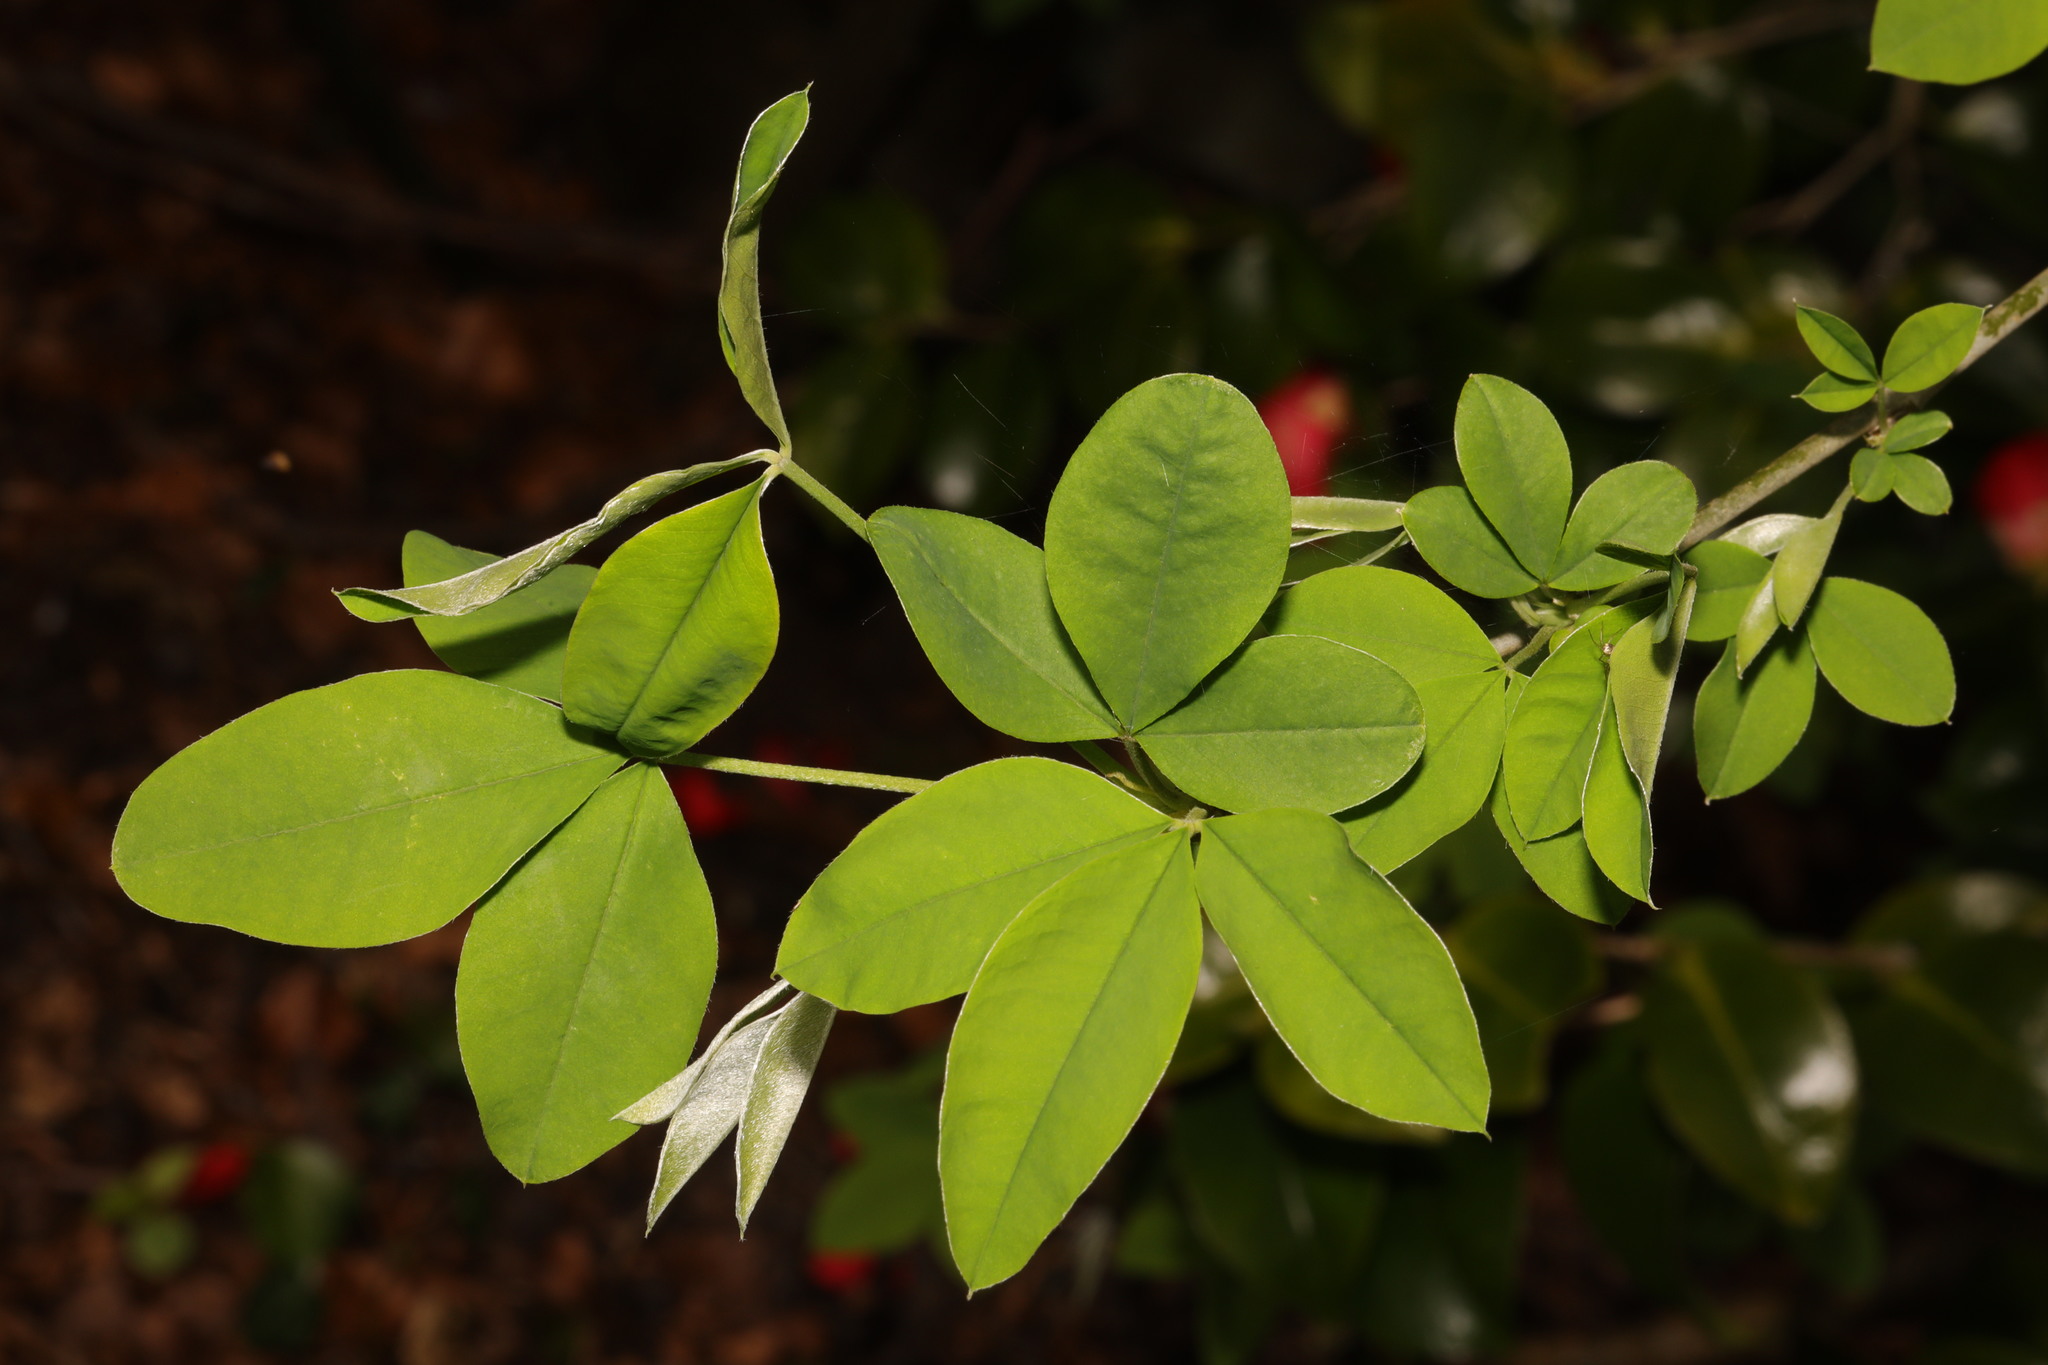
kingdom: Plantae
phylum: Tracheophyta
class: Magnoliopsida
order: Fabales
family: Fabaceae
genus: Laburnum
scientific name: Laburnum anagyroides
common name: Laburnum
